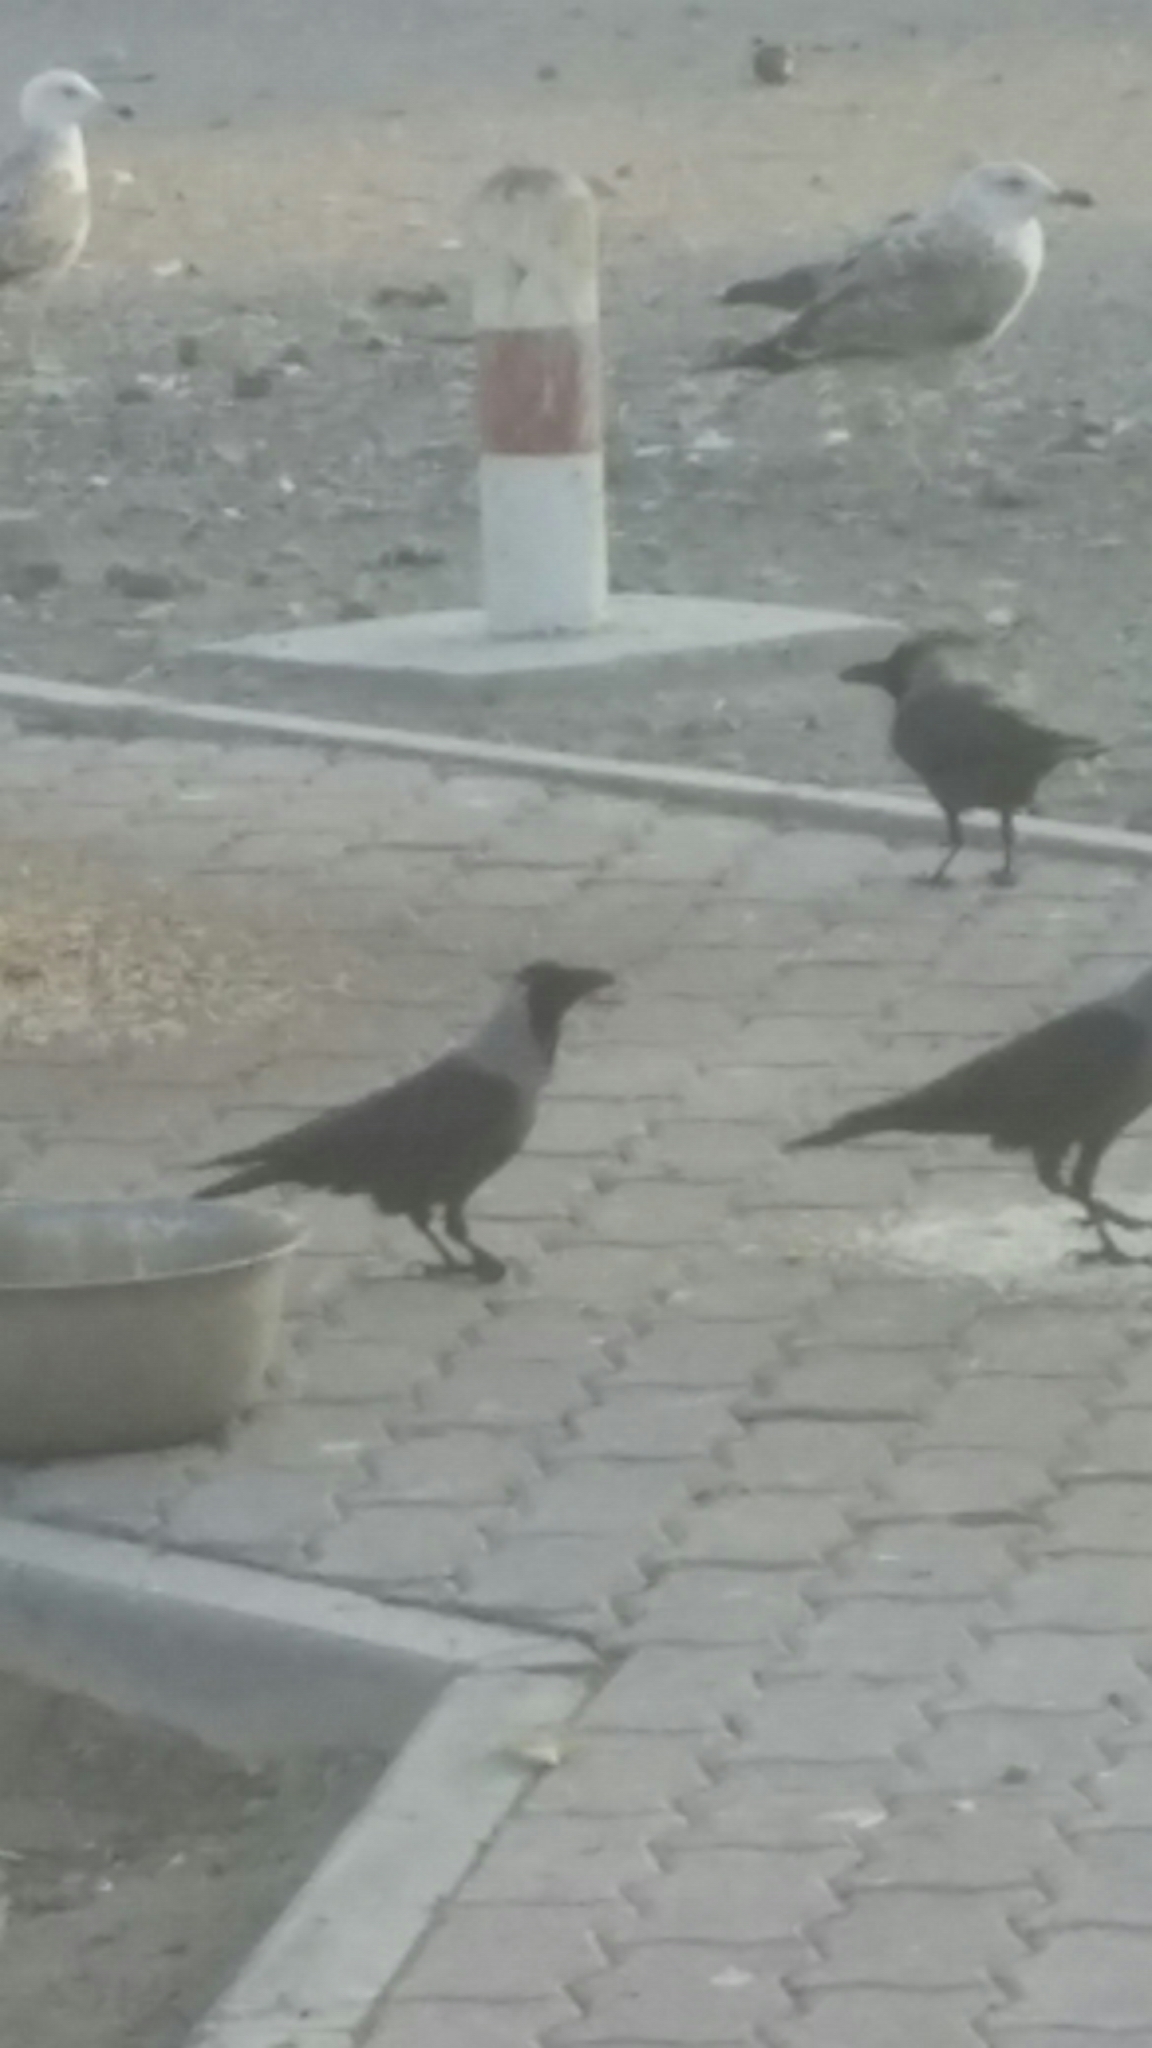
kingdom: Animalia
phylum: Chordata
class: Aves
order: Passeriformes
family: Corvidae
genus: Corvus
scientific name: Corvus splendens
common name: House crow
